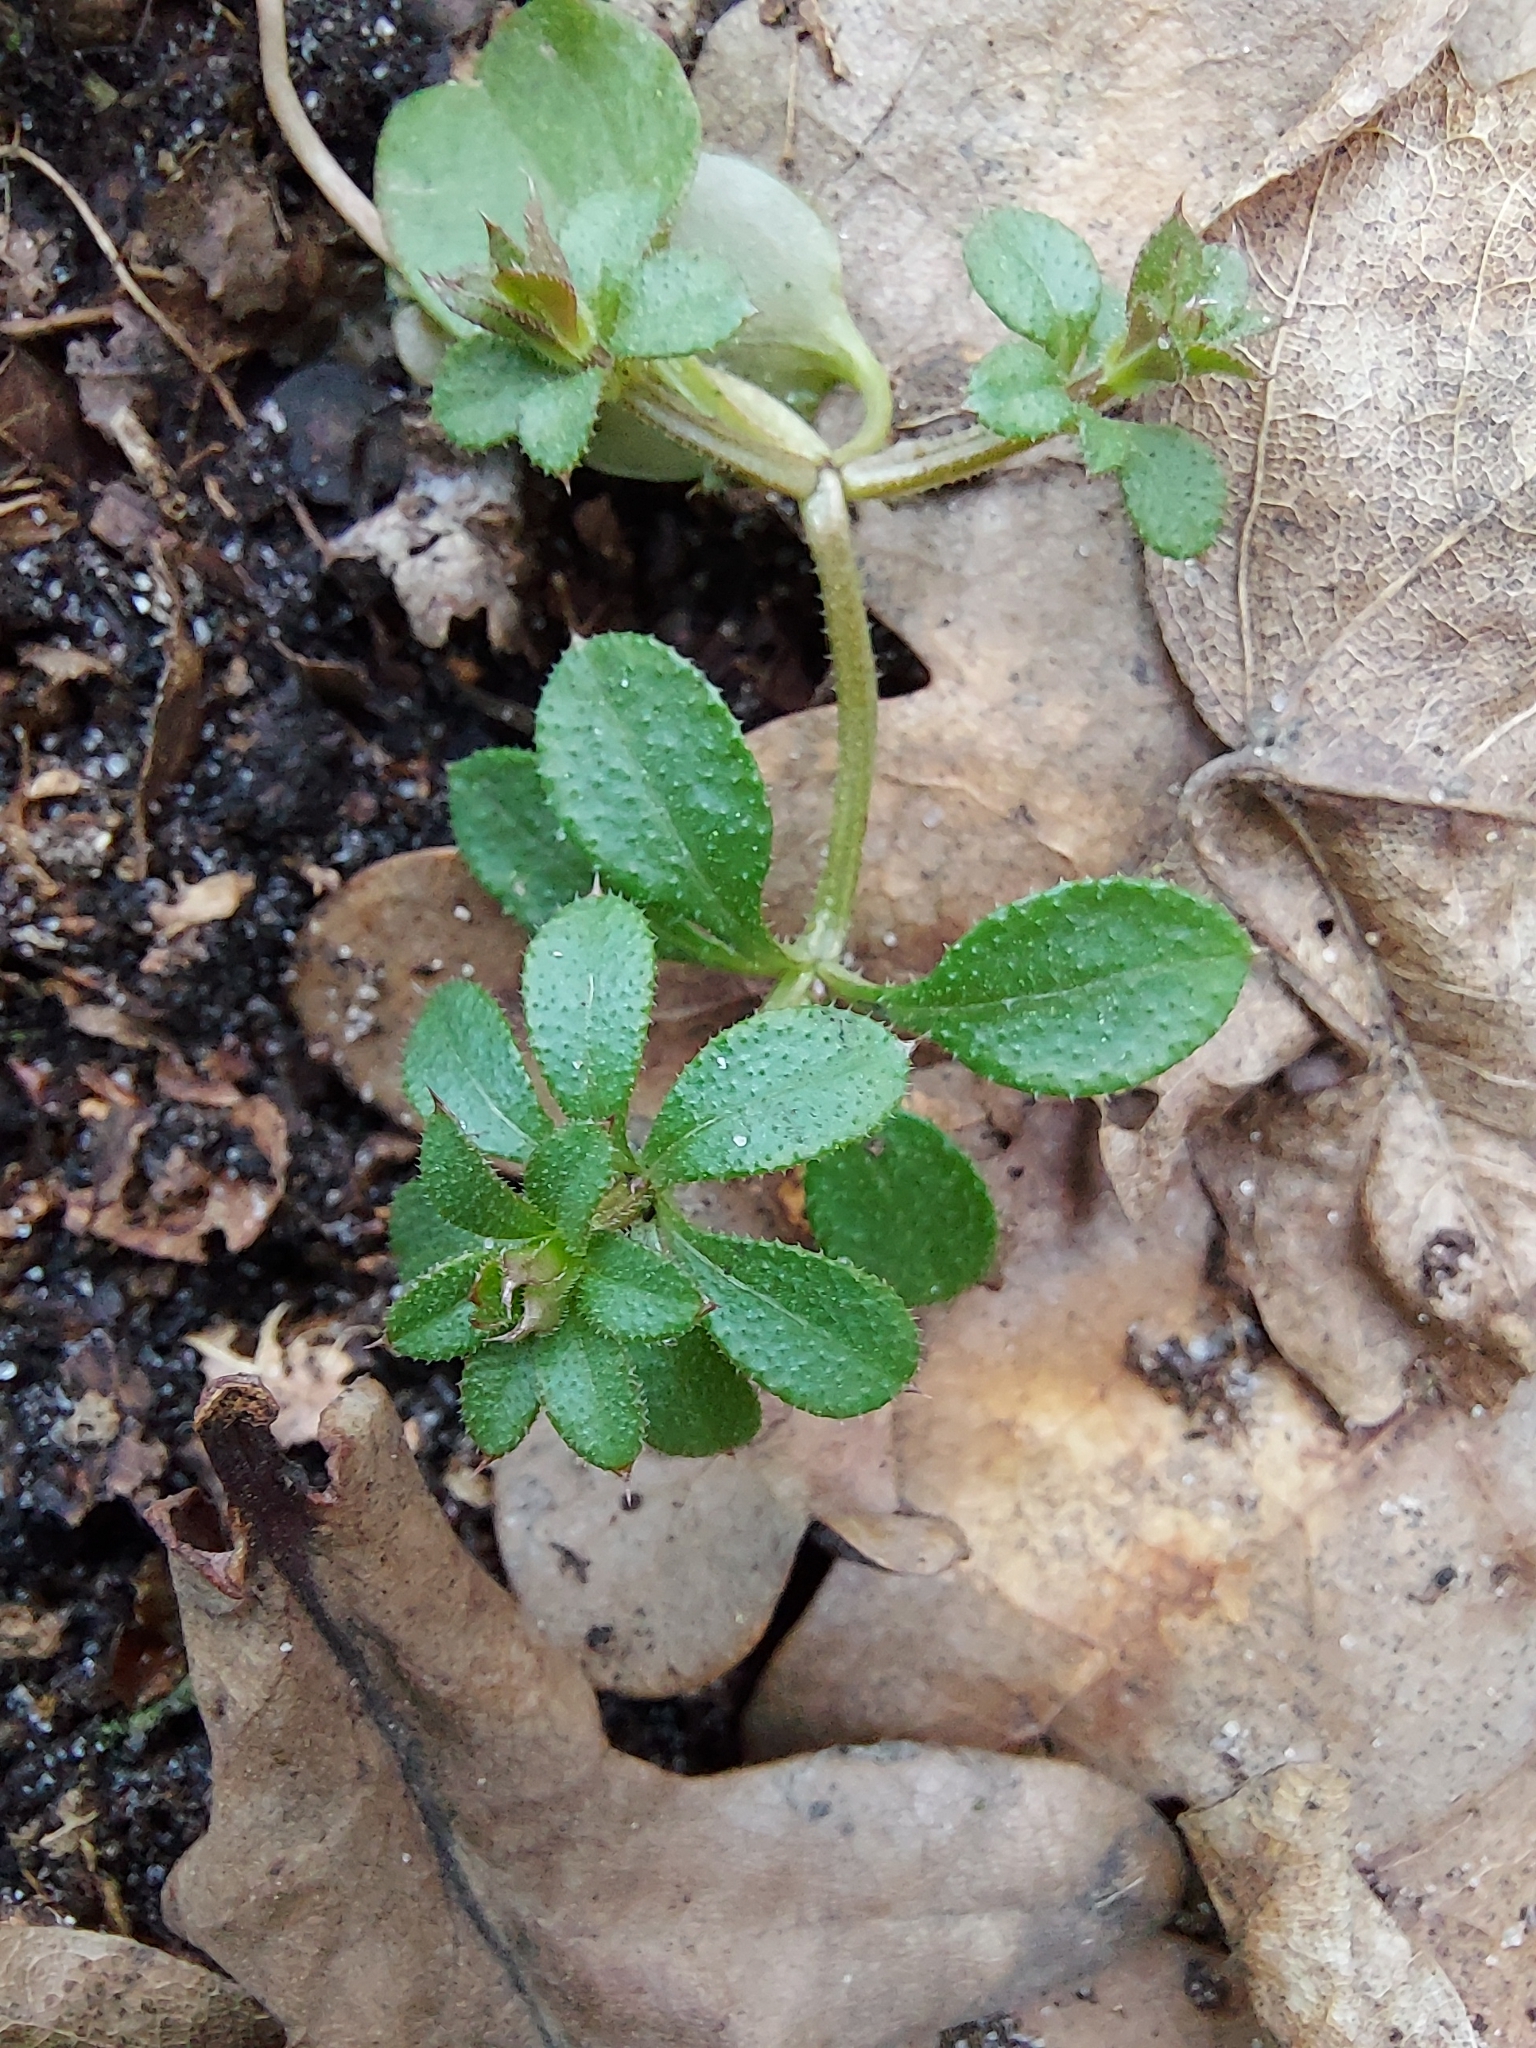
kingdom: Plantae
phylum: Tracheophyta
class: Magnoliopsida
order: Gentianales
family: Rubiaceae
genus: Galium
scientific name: Galium aparine
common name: Cleavers
